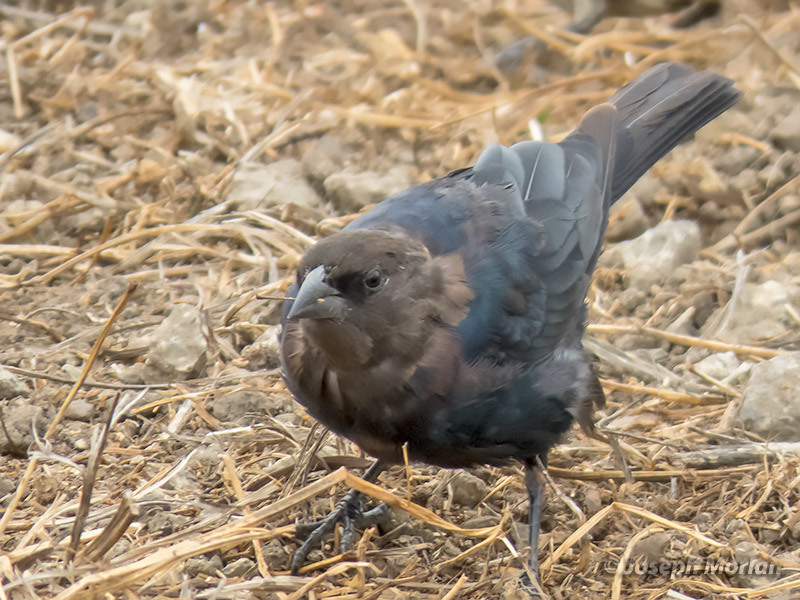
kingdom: Animalia
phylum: Chordata
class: Aves
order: Passeriformes
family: Icteridae
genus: Molothrus
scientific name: Molothrus ater
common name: Brown-headed cowbird
